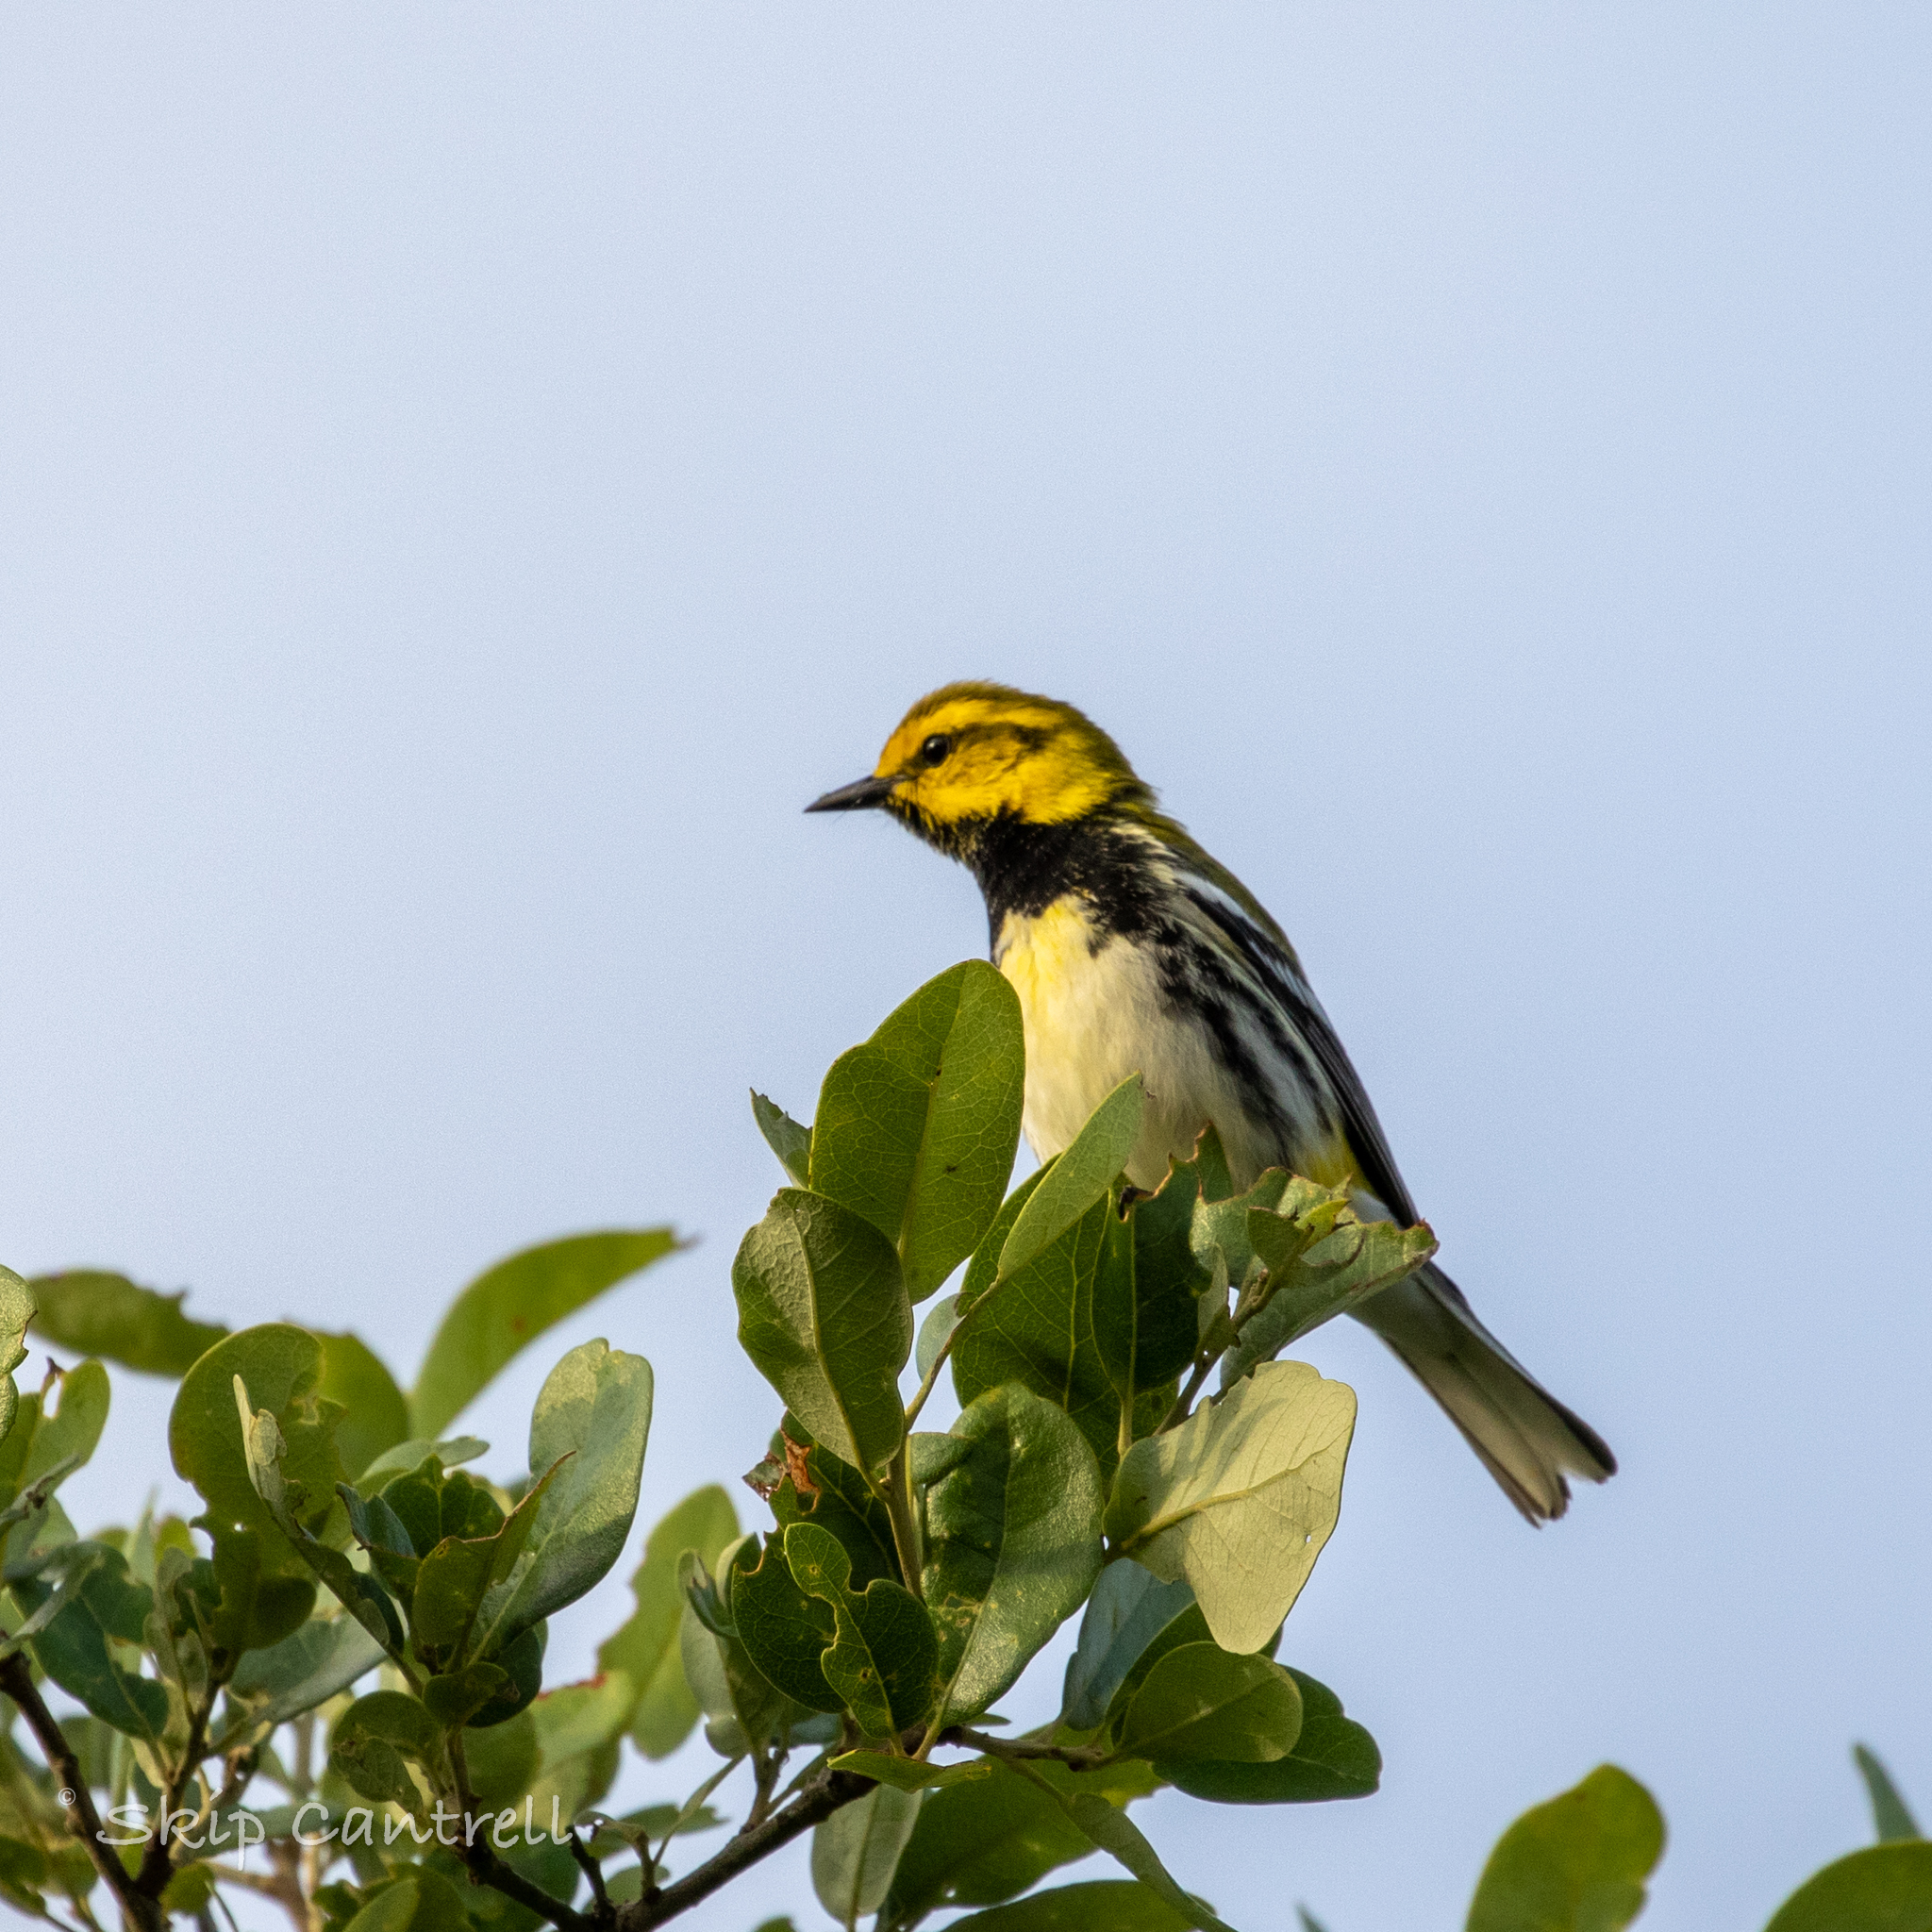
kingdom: Animalia
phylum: Chordata
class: Aves
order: Passeriformes
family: Parulidae
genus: Setophaga
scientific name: Setophaga virens
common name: Black-throated green warbler
